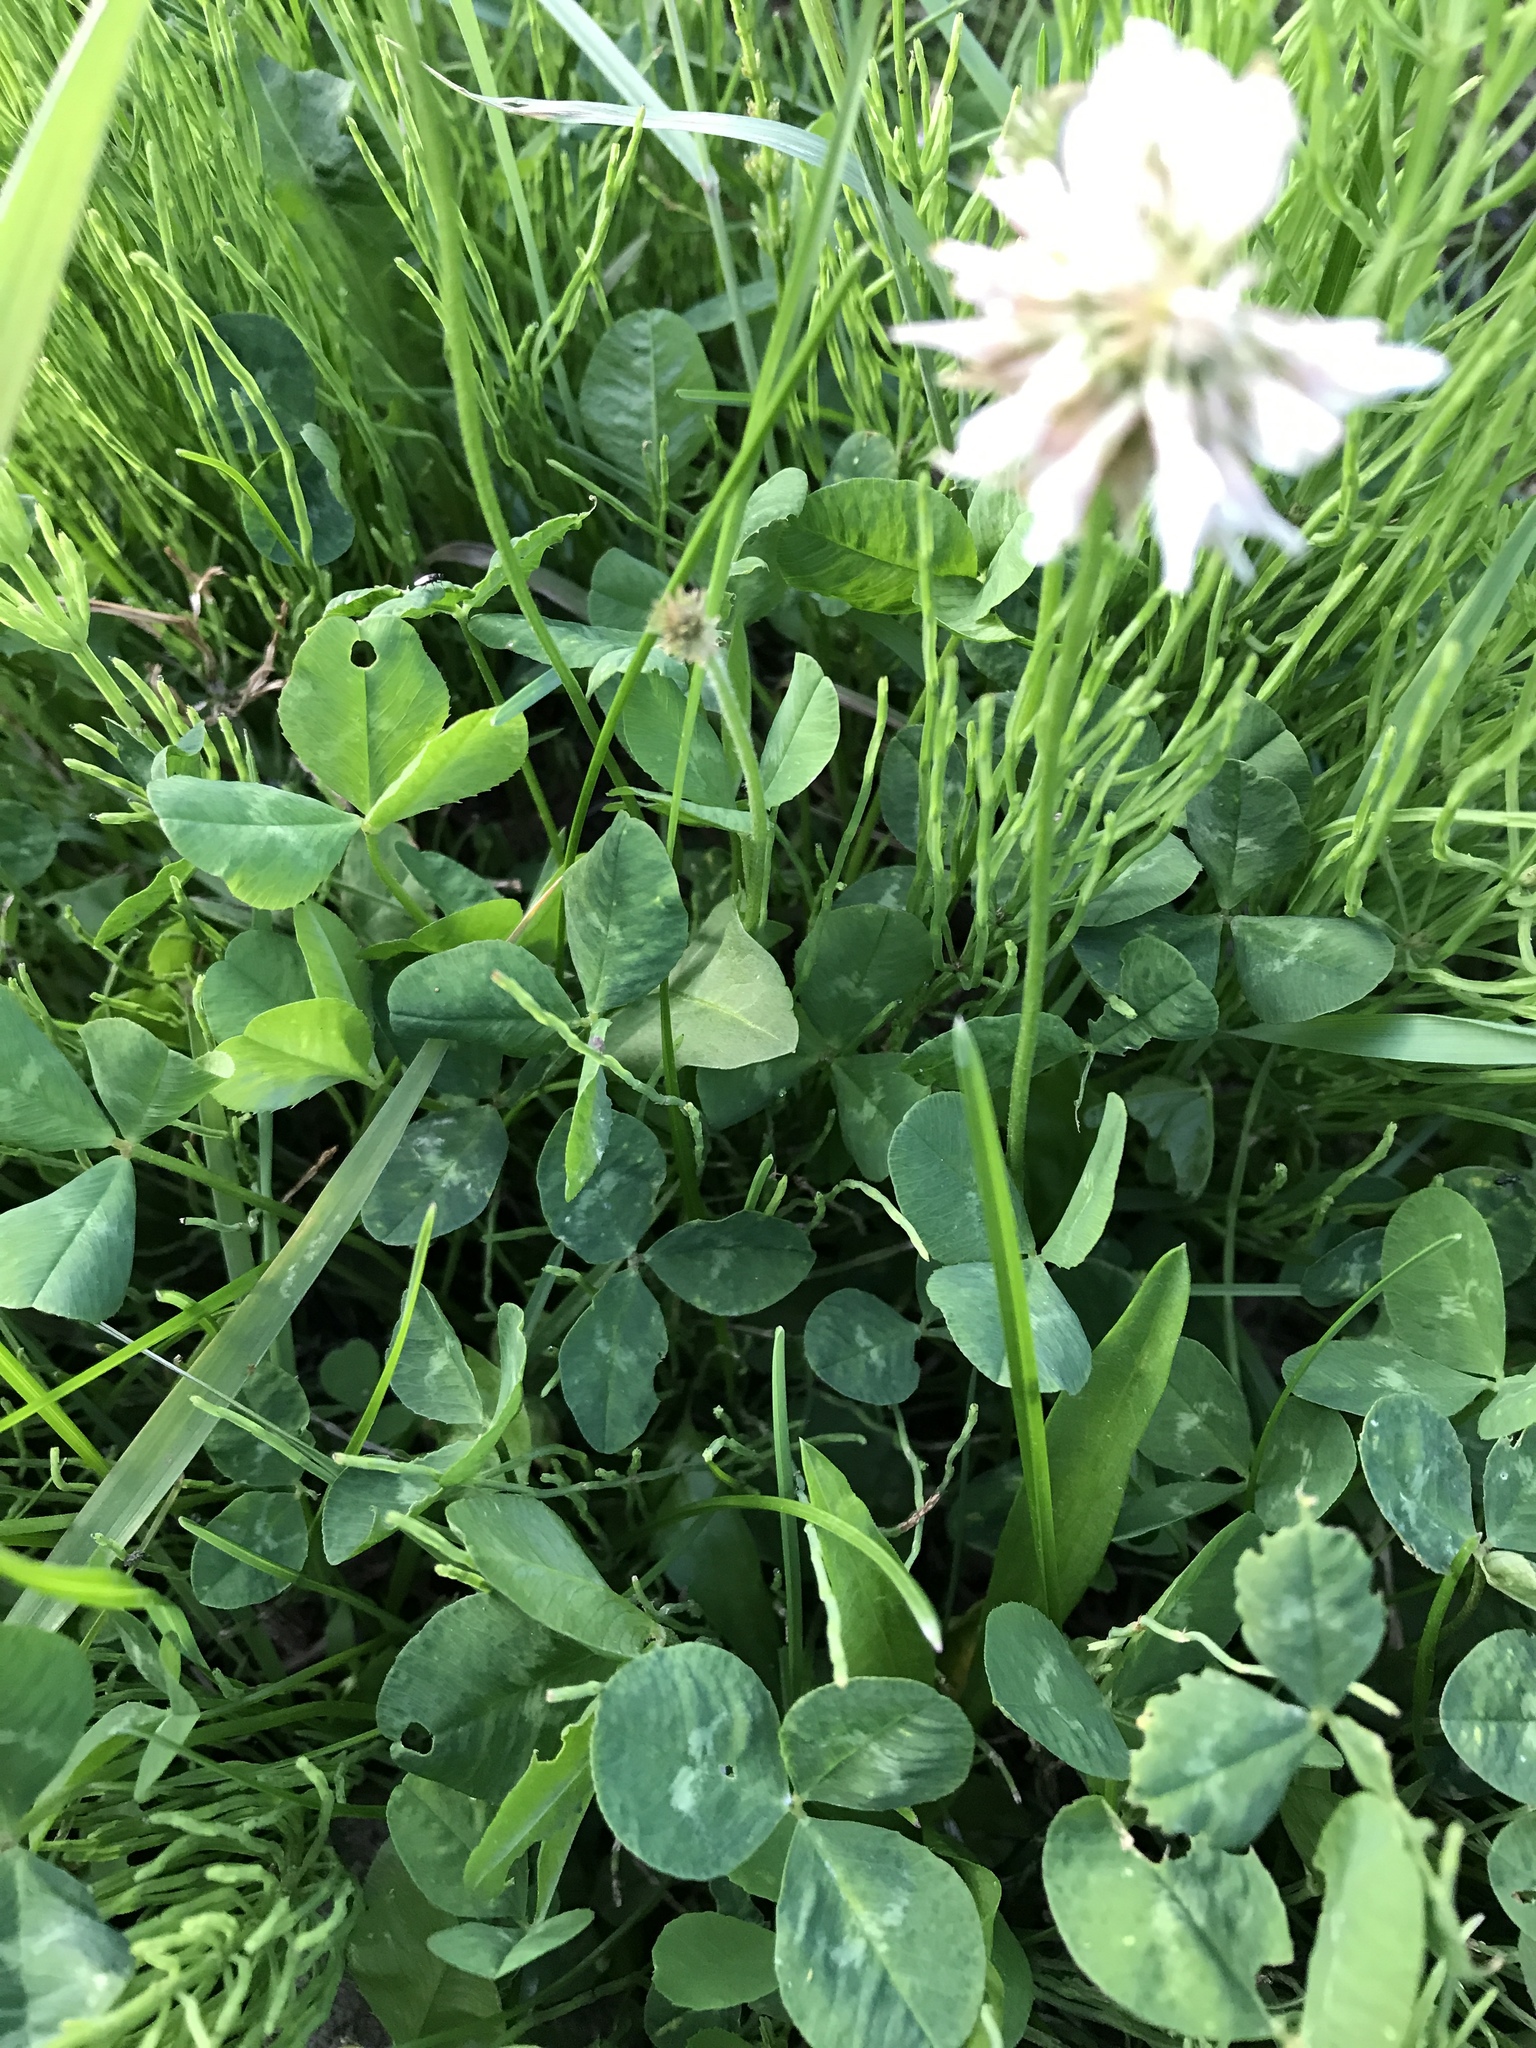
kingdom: Plantae
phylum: Tracheophyta
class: Magnoliopsida
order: Fabales
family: Fabaceae
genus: Trifolium
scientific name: Trifolium repens
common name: White clover
